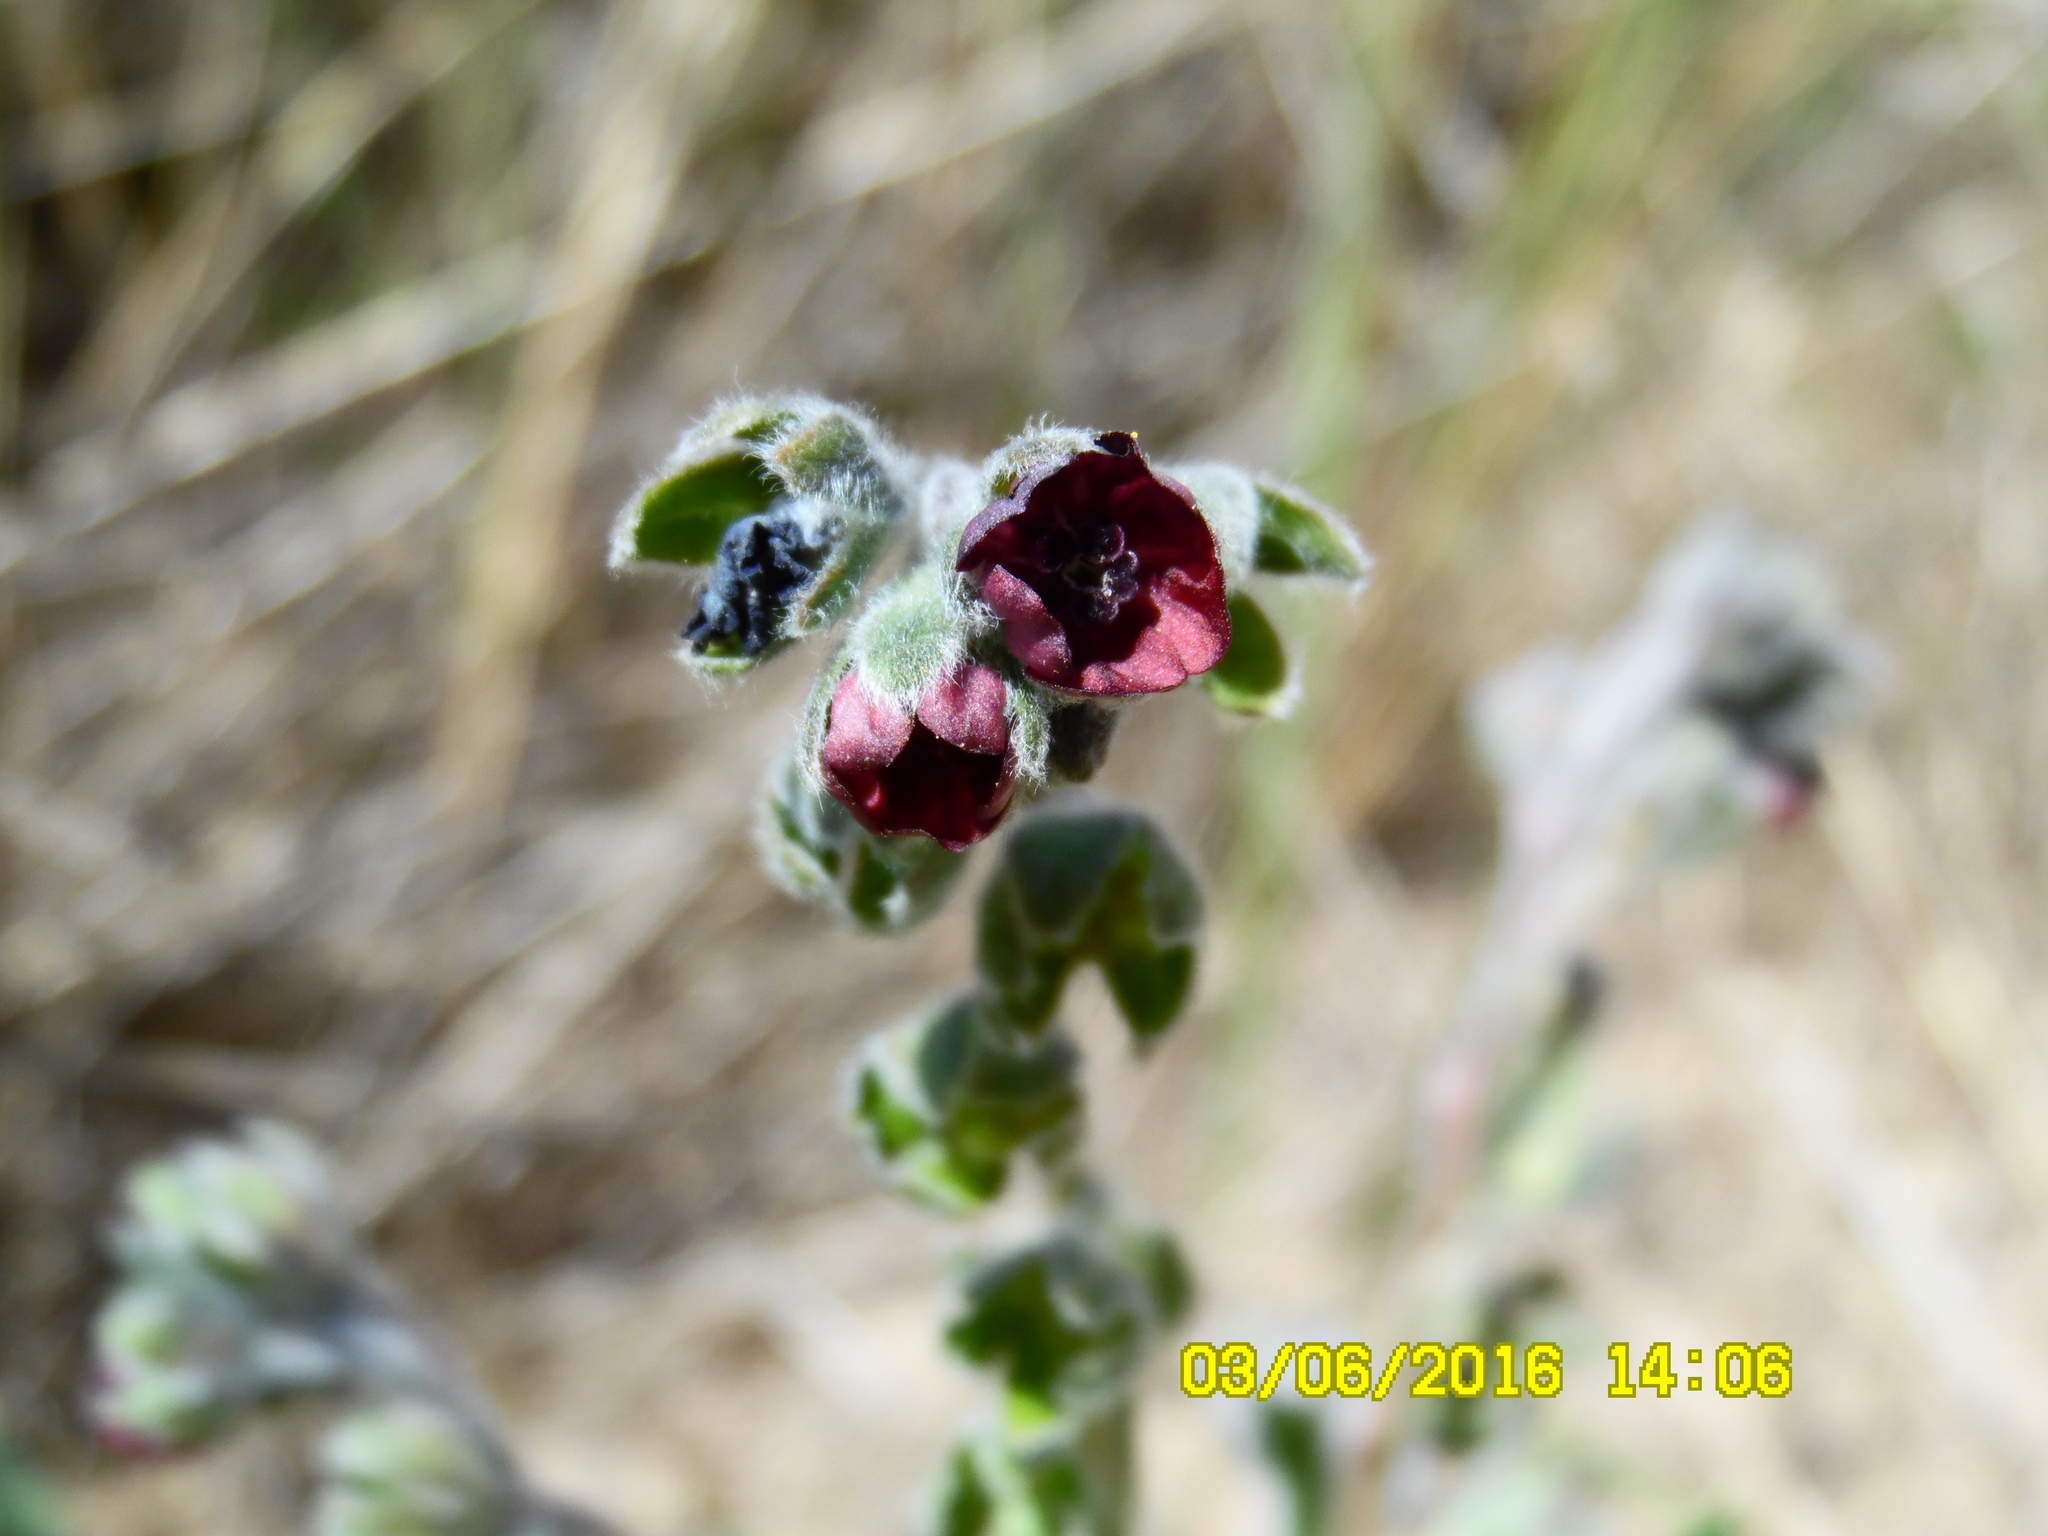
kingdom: Plantae
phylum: Tracheophyta
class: Magnoliopsida
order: Boraginales
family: Boraginaceae
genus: Cynoglossum
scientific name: Cynoglossum officinale
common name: Hound's-tongue
